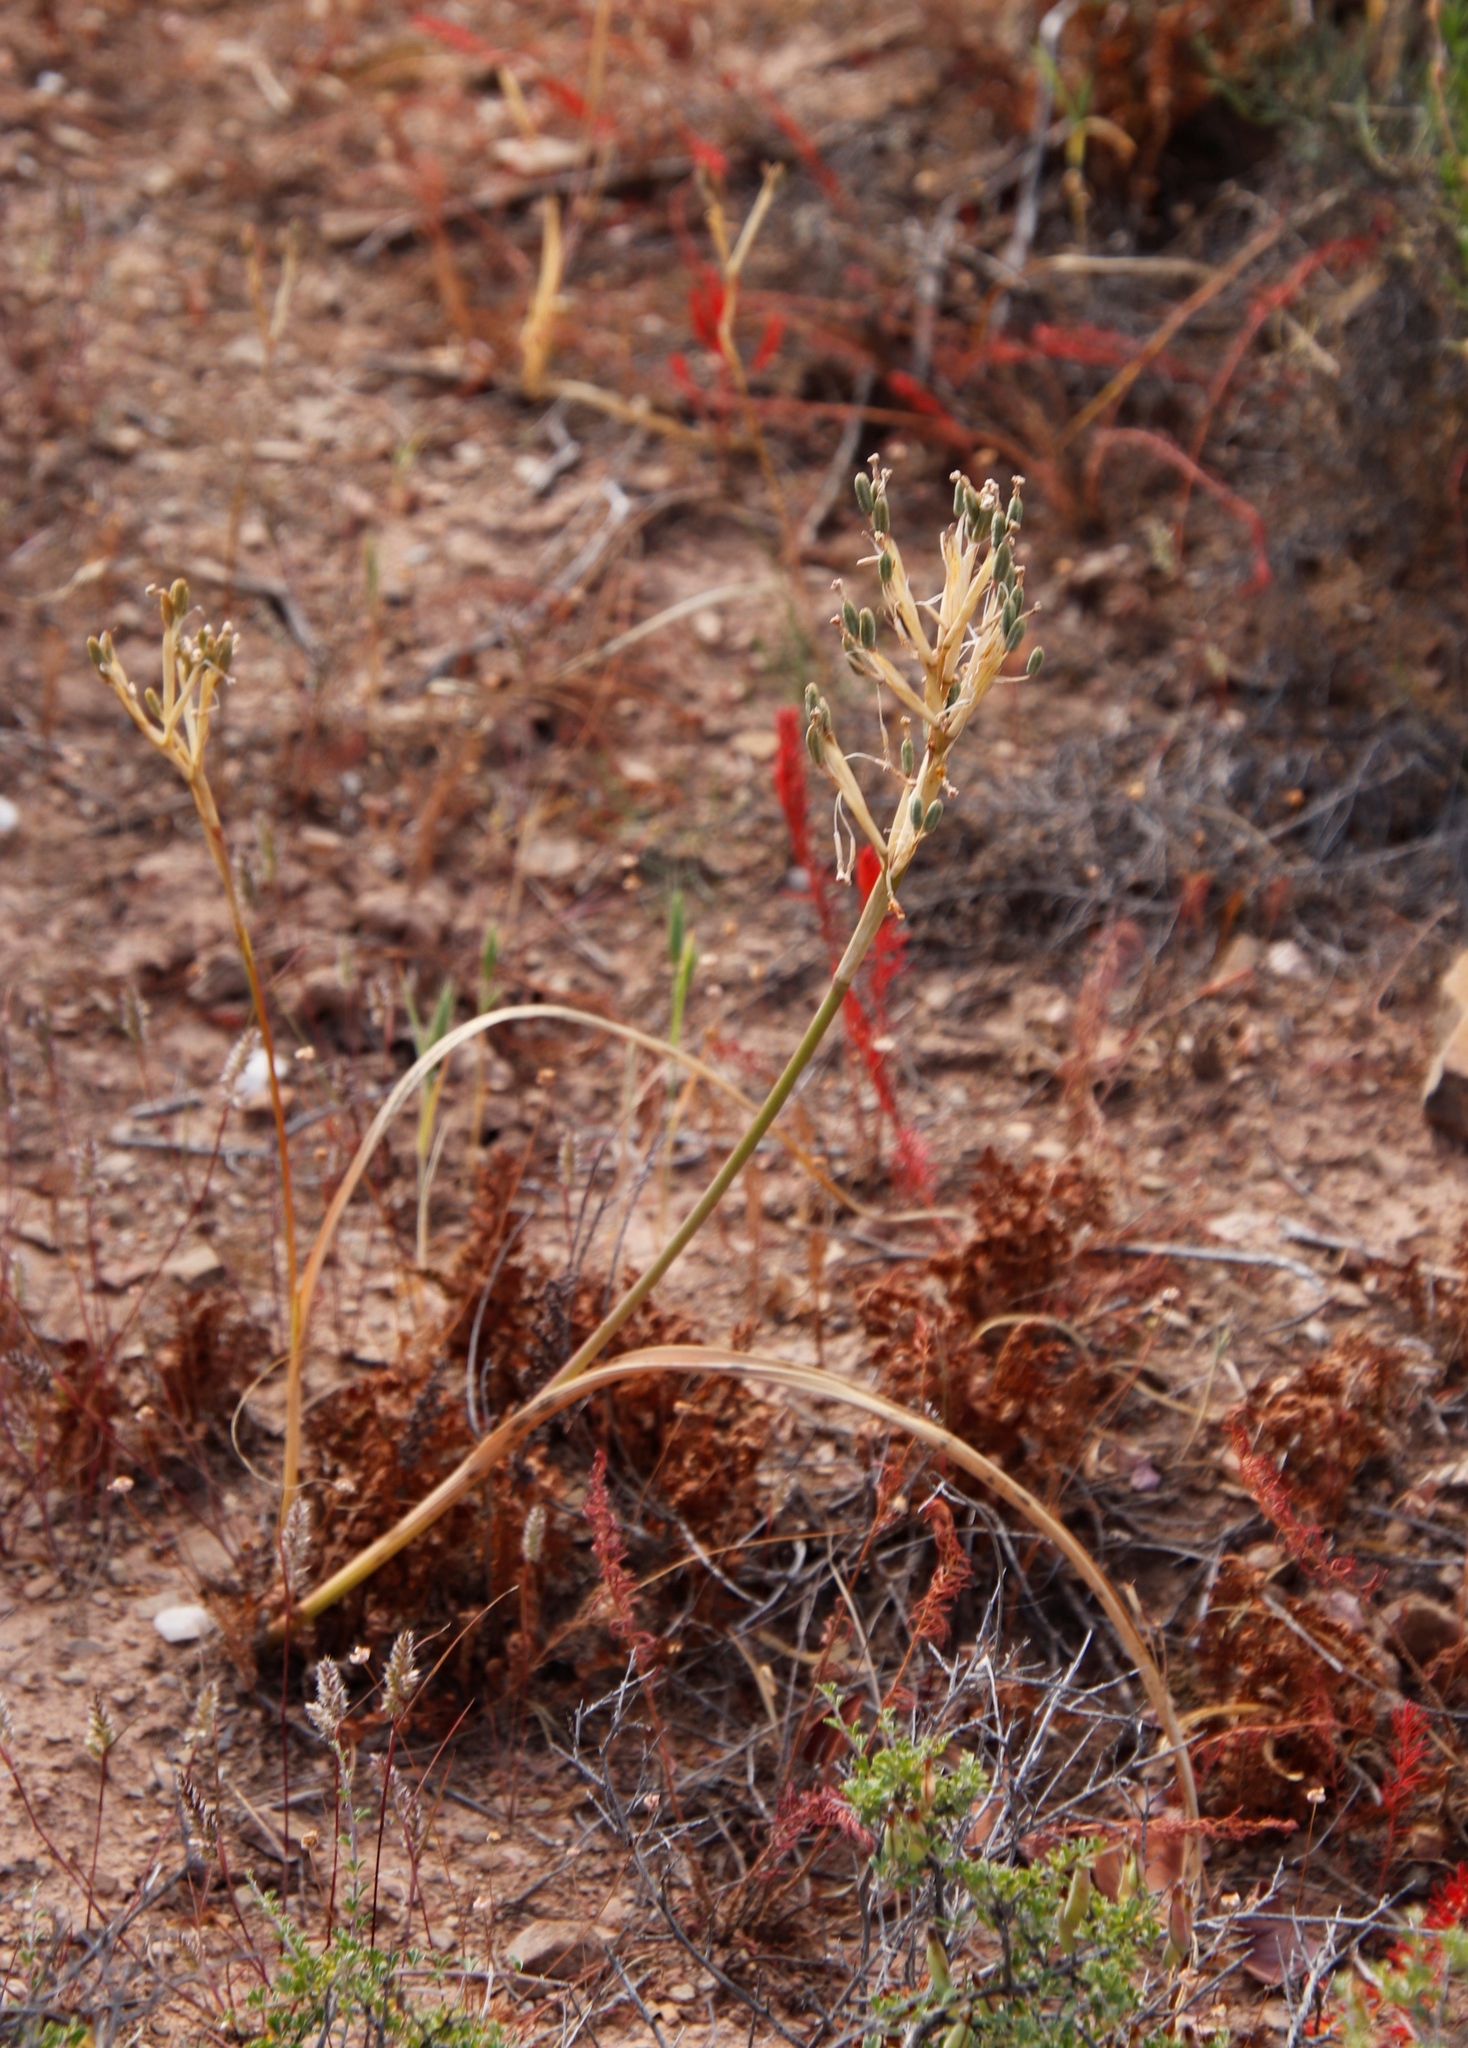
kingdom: Plantae
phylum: Tracheophyta
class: Magnoliopsida
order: Oxalidales
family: Oxalidaceae
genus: Oxalis
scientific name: Oxalis massoniana
